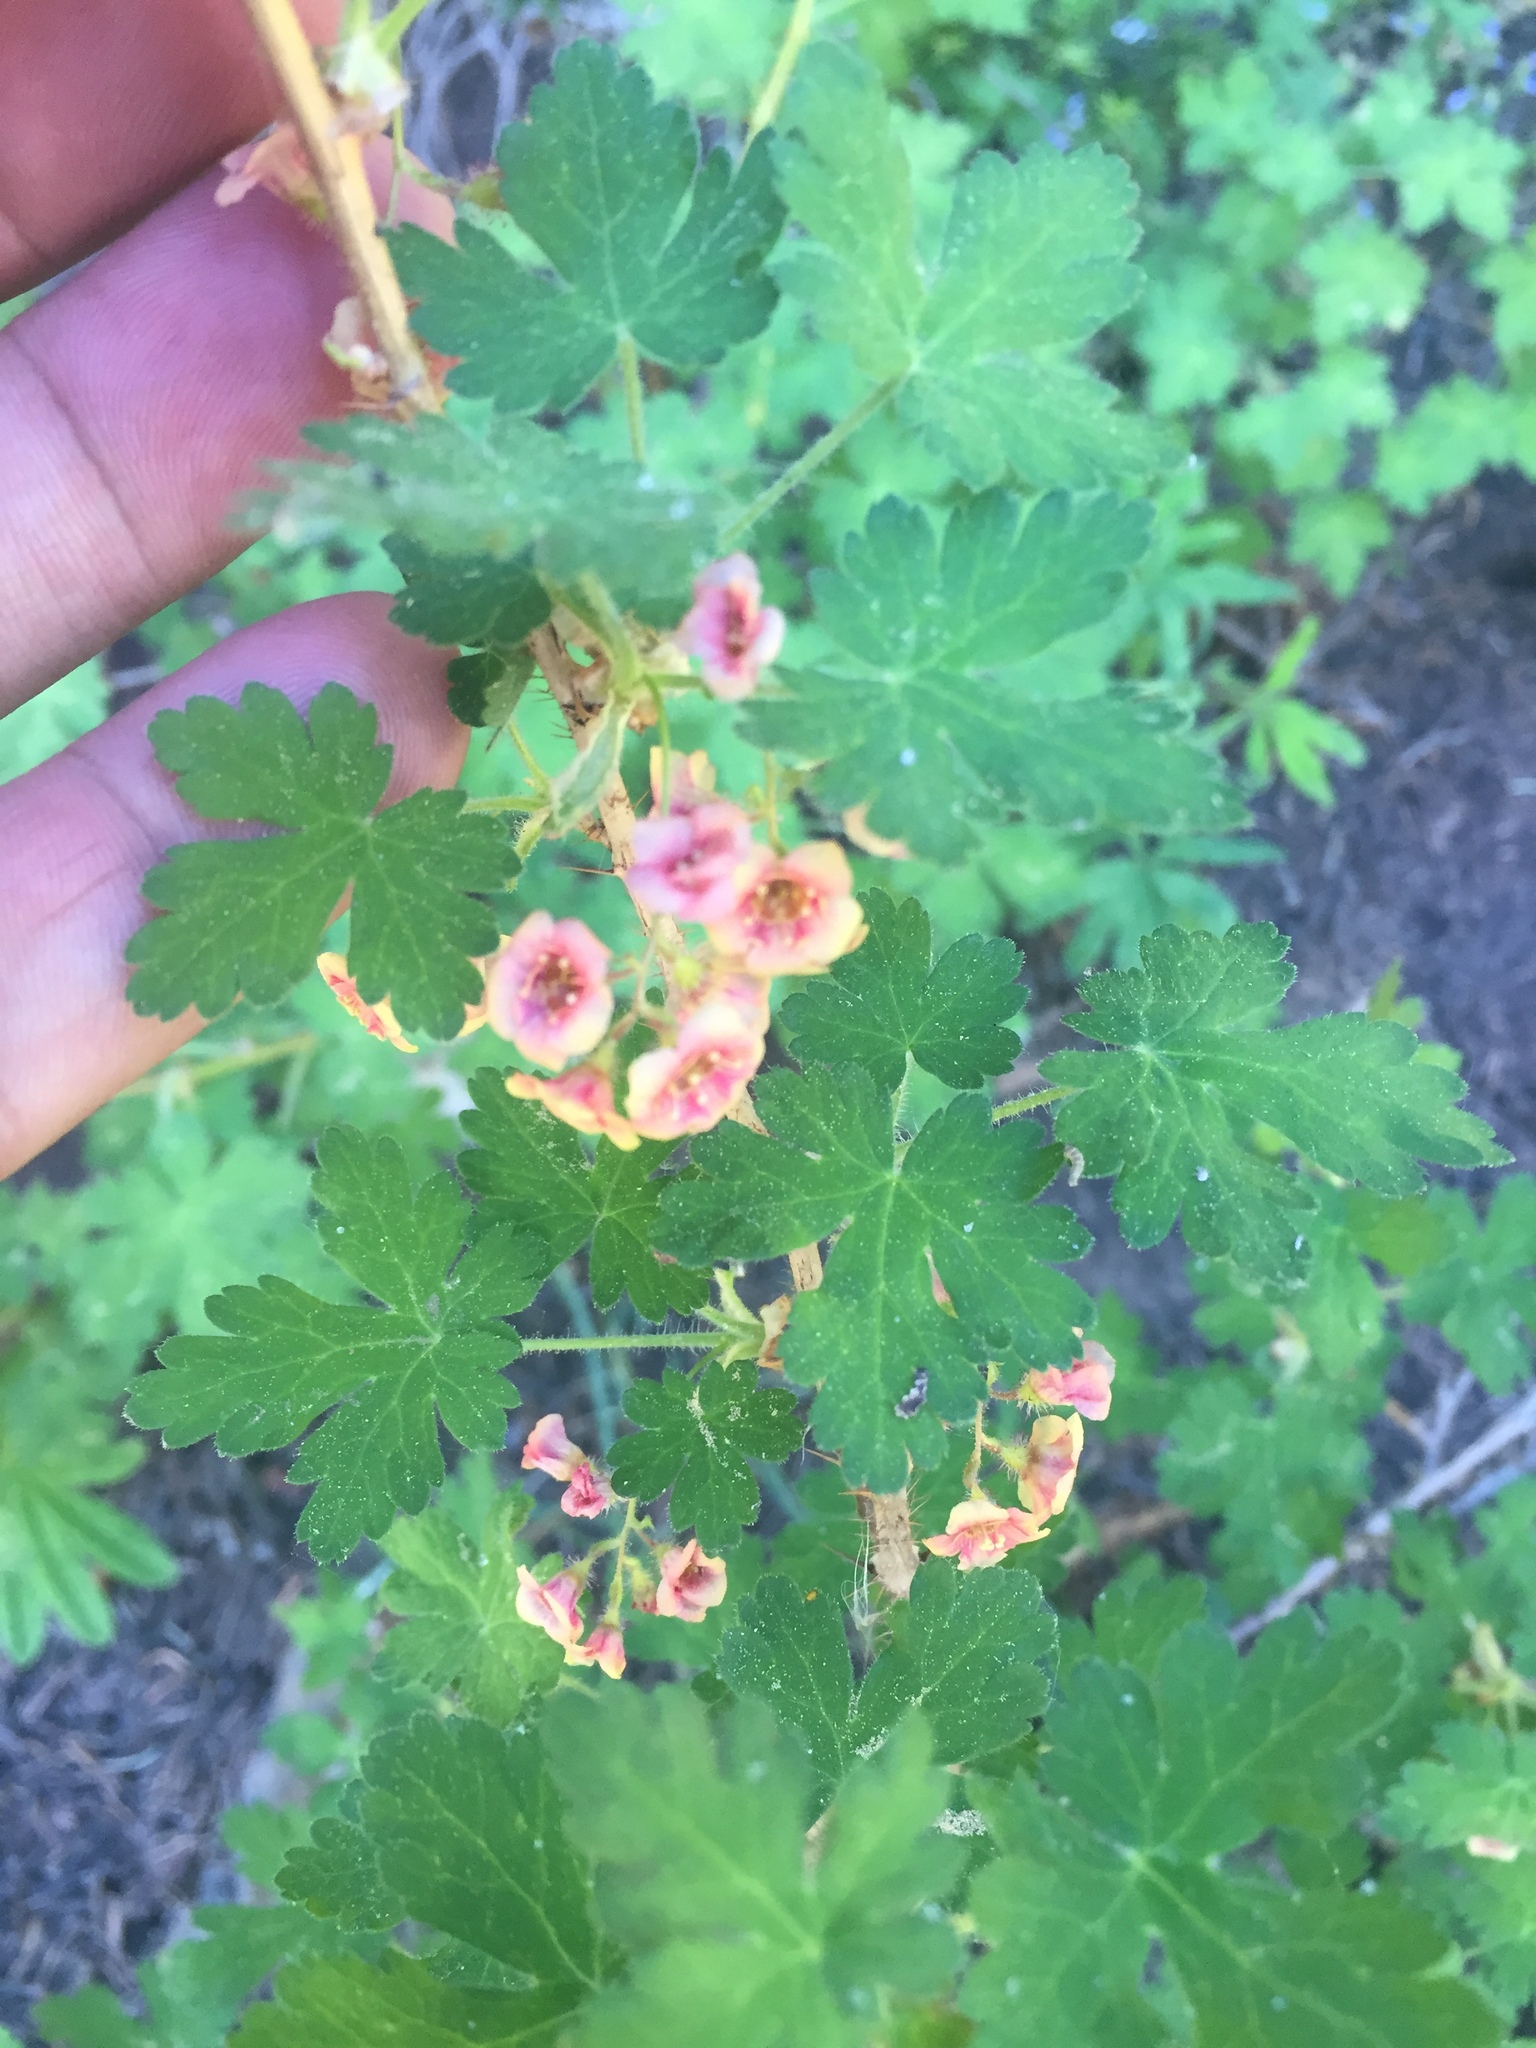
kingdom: Plantae
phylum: Tracheophyta
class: Magnoliopsida
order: Saxifragales
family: Grossulariaceae
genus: Ribes
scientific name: Ribes montigenum
